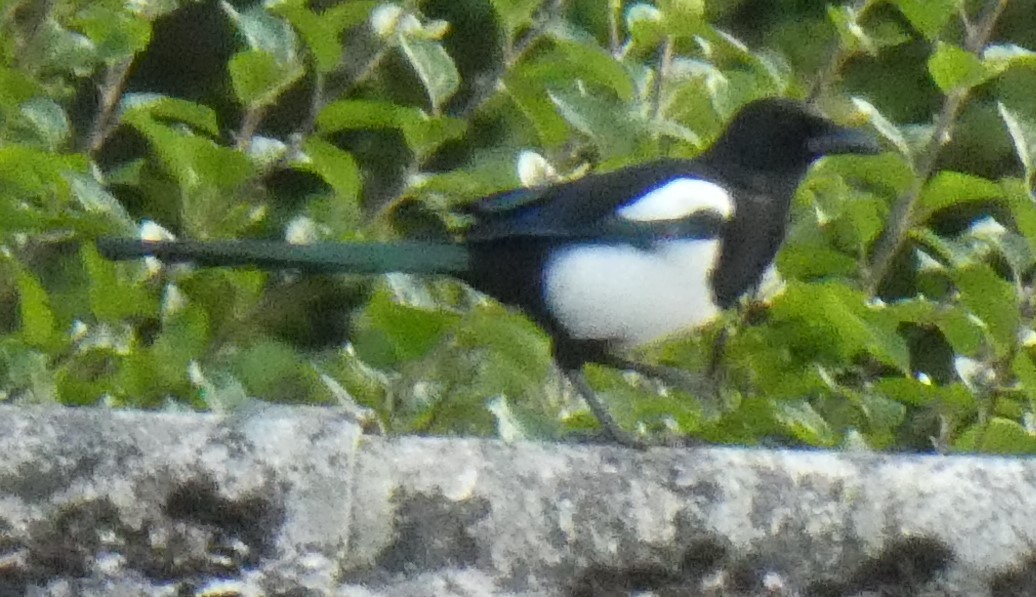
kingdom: Animalia
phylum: Chordata
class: Aves
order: Passeriformes
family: Corvidae
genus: Pica
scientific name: Pica pica
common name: Eurasian magpie
